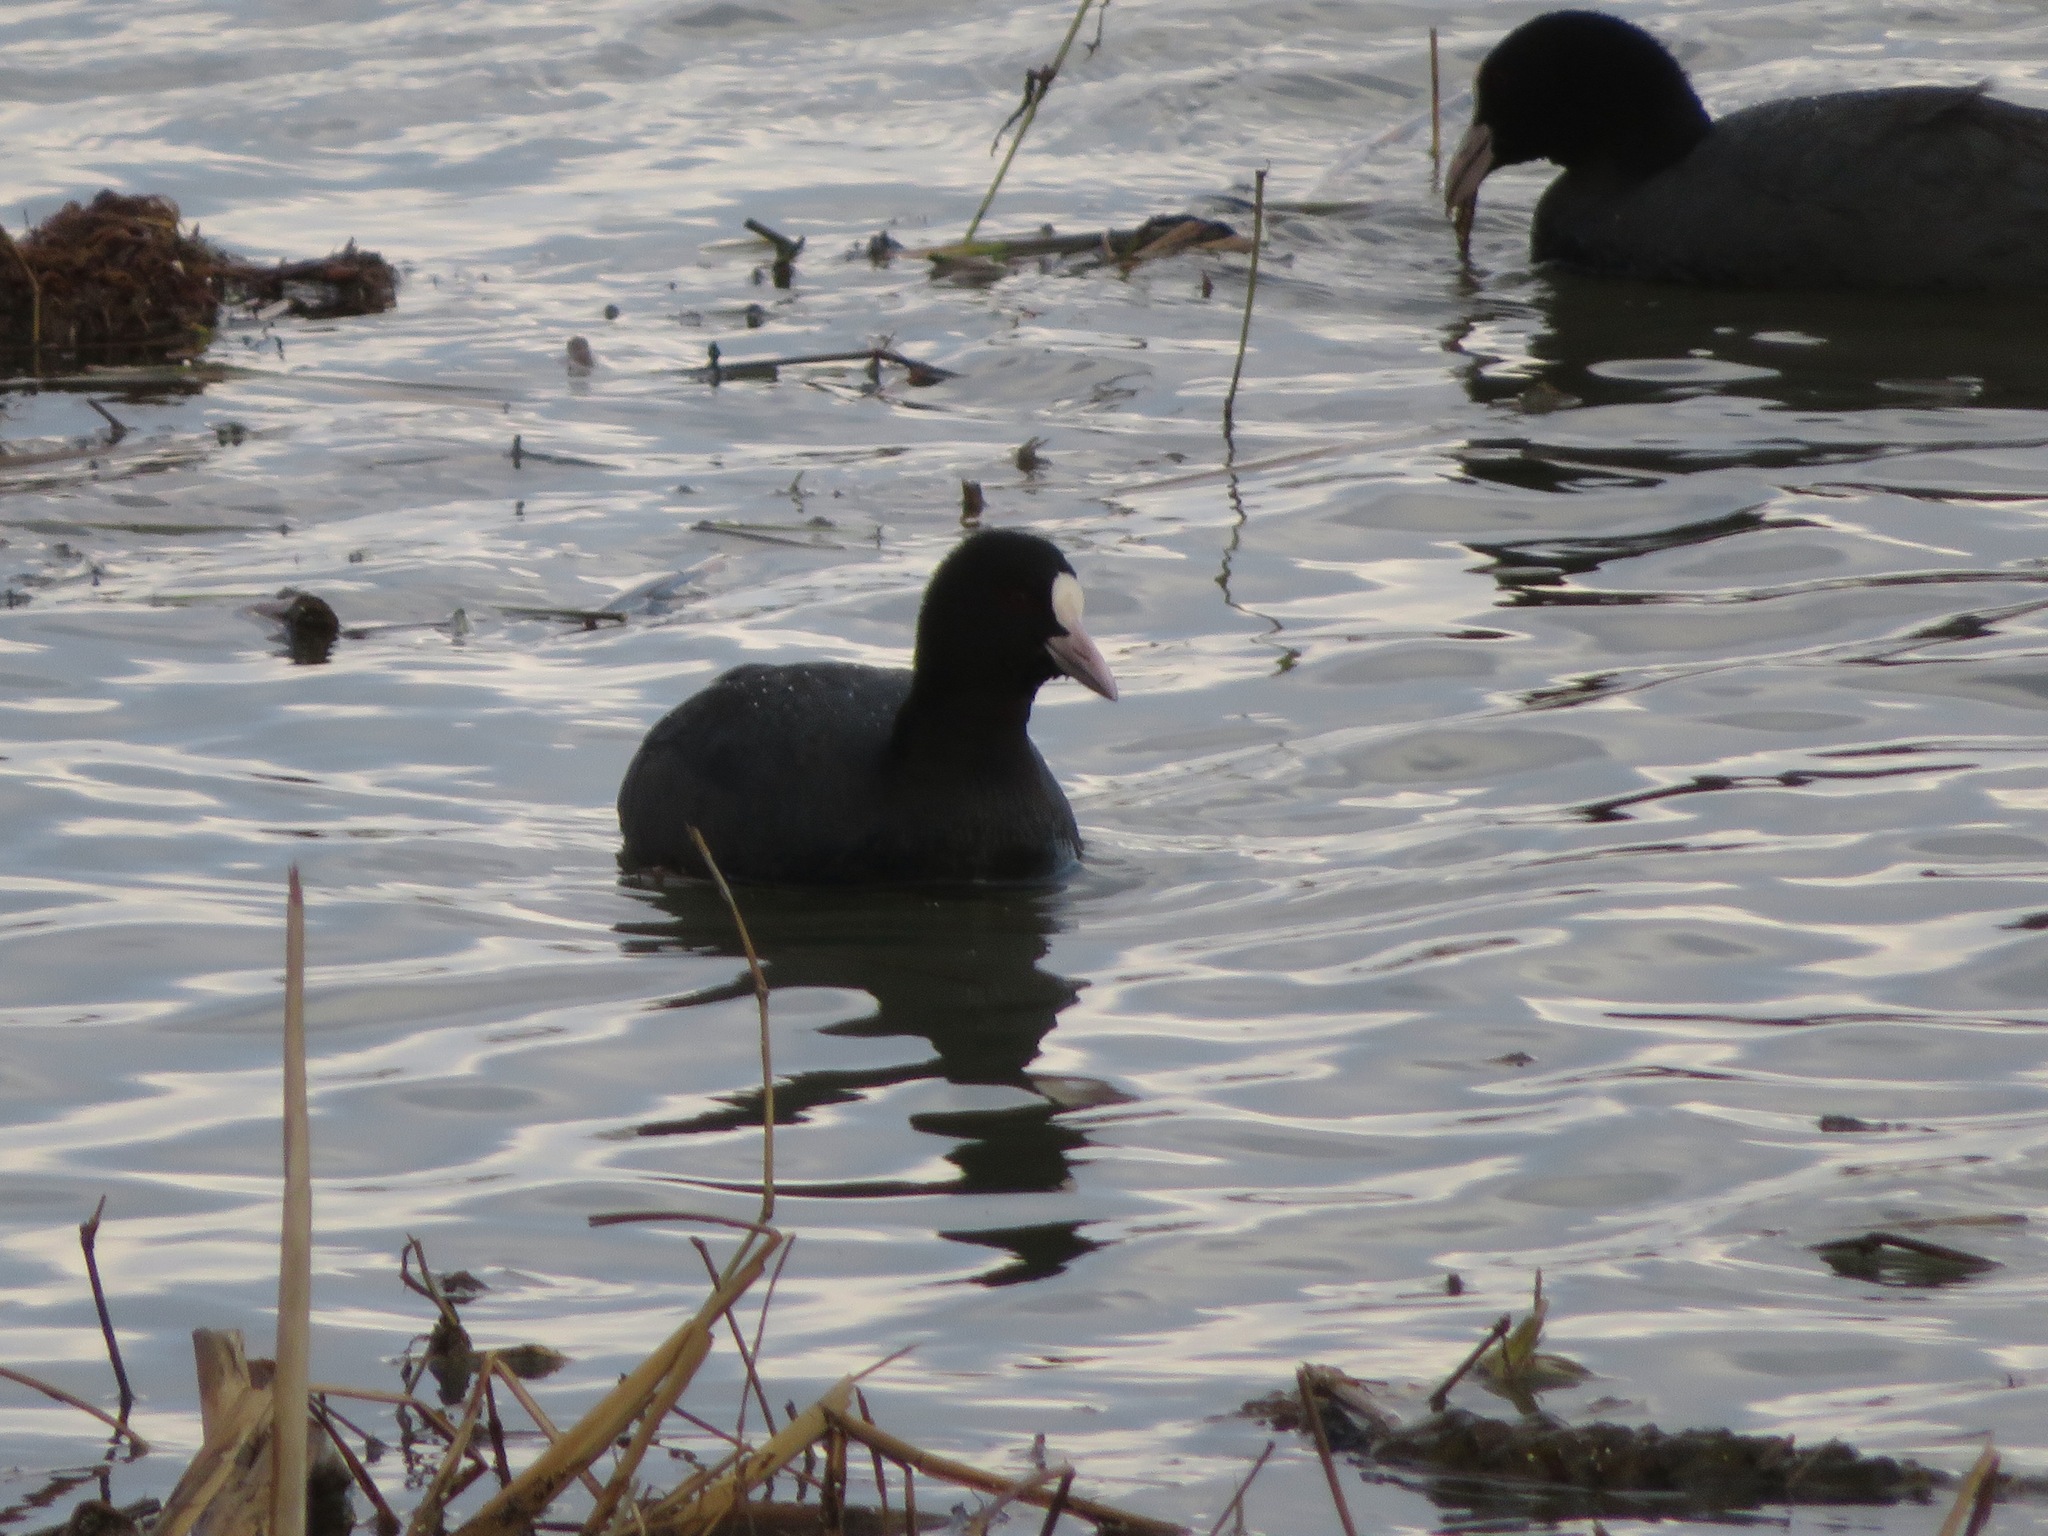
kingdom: Animalia
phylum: Chordata
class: Aves
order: Gruiformes
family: Rallidae
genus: Fulica
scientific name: Fulica atra
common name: Eurasian coot
